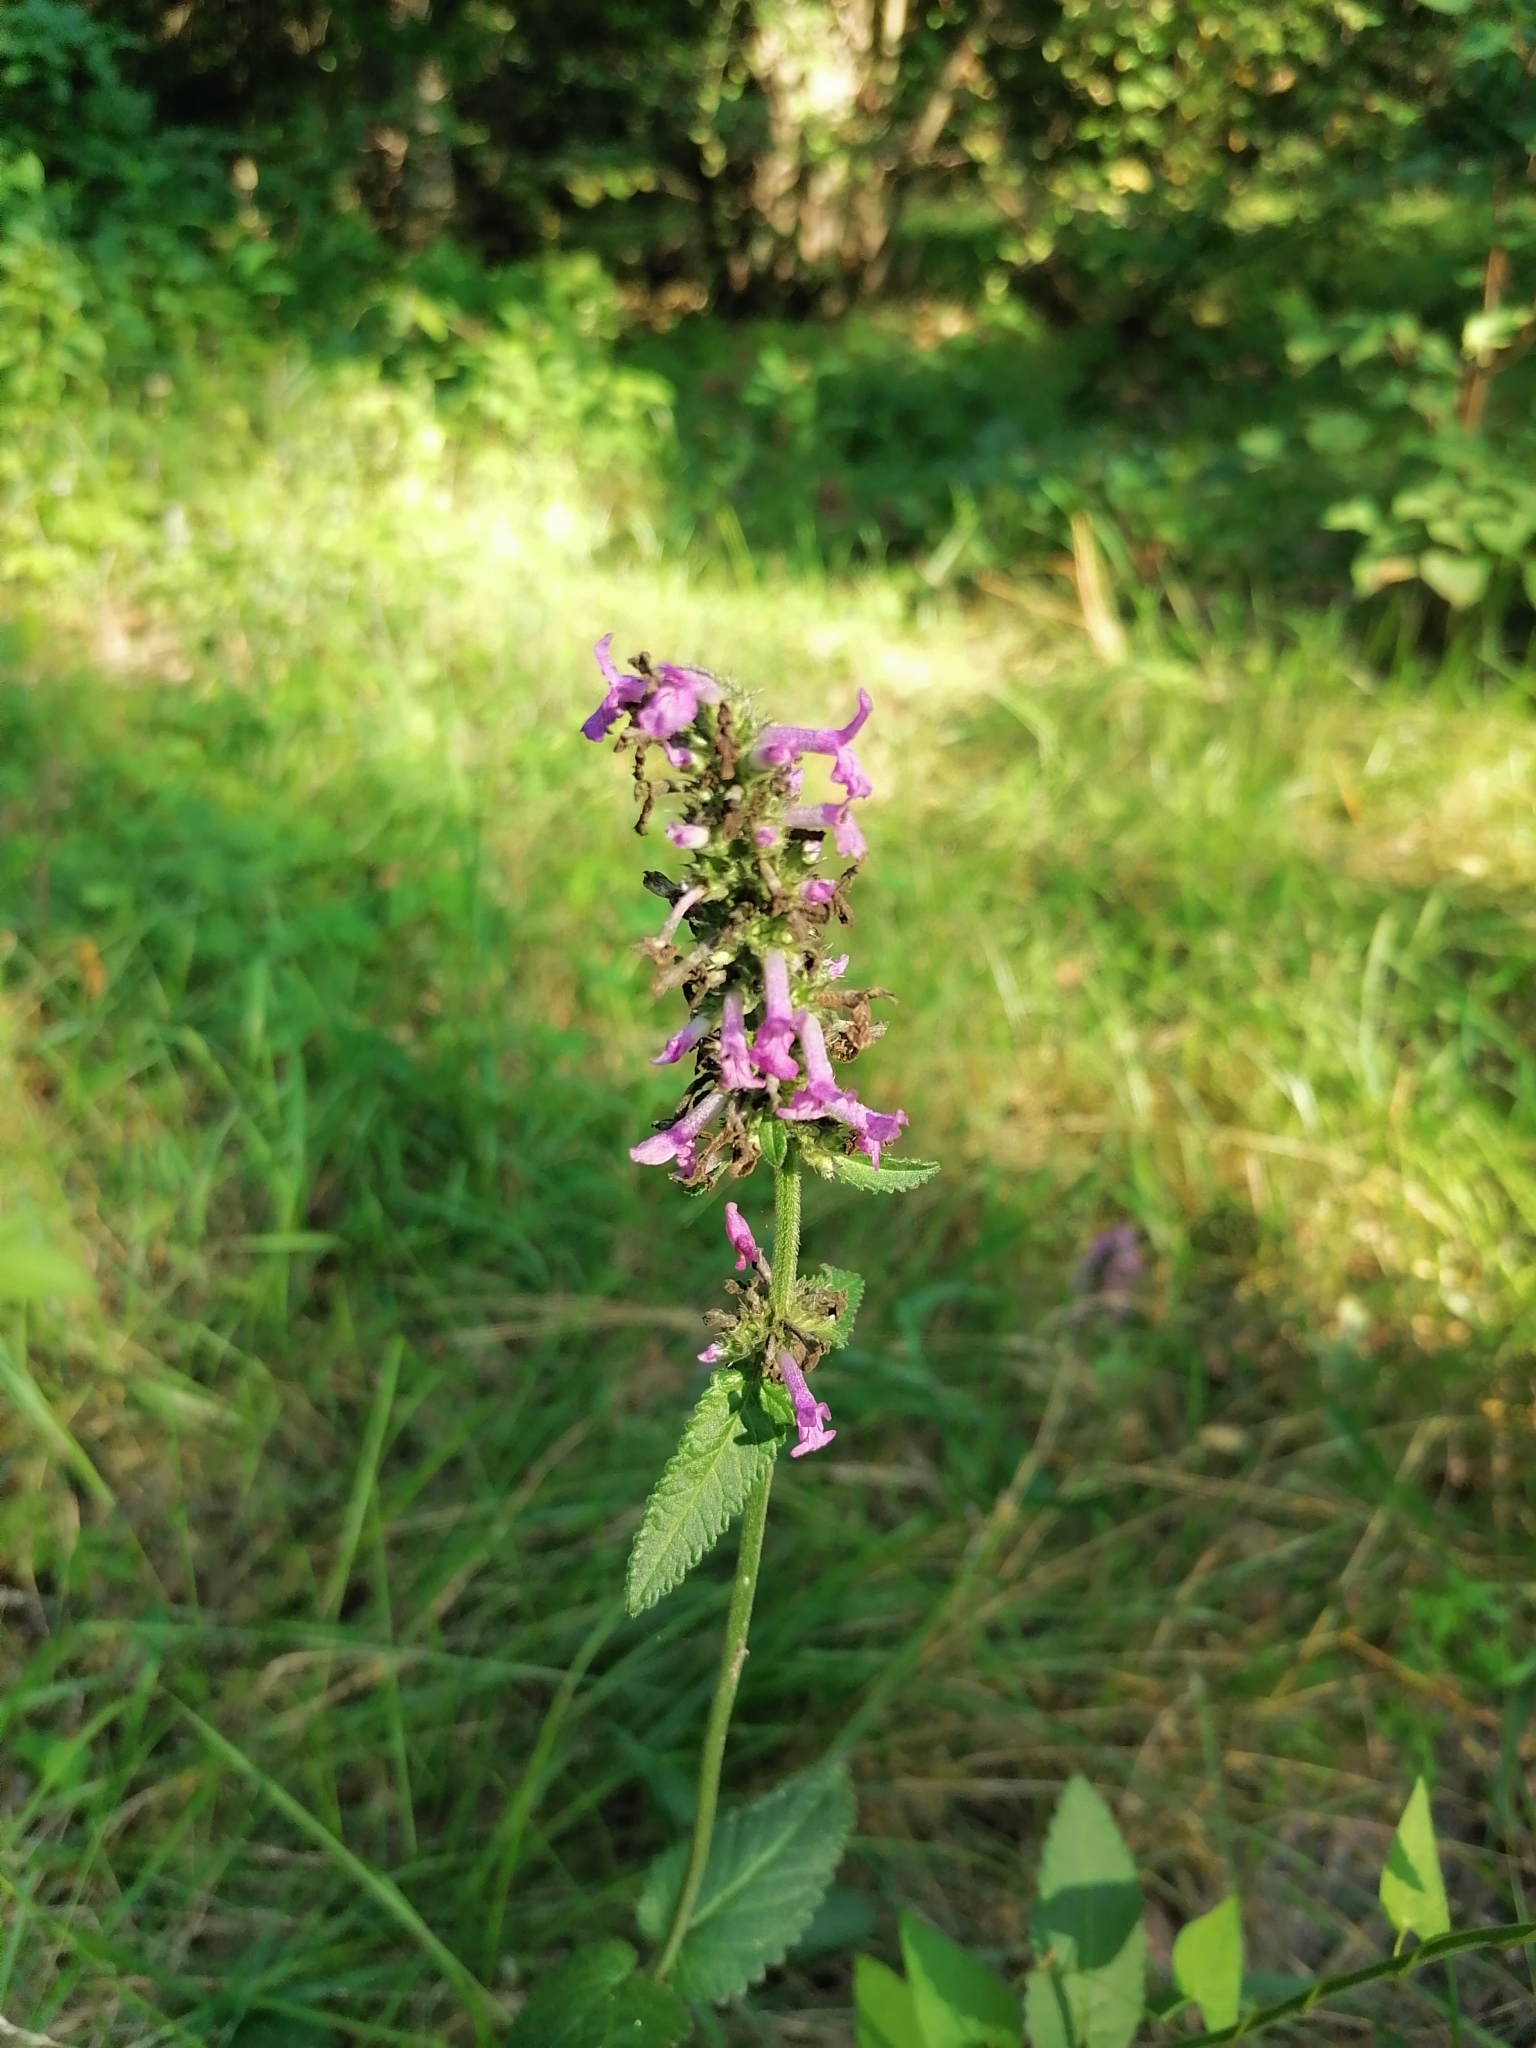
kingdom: Plantae
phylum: Tracheophyta
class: Magnoliopsida
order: Lamiales
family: Lamiaceae
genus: Betonica
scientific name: Betonica officinalis
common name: Bishop's-wort
